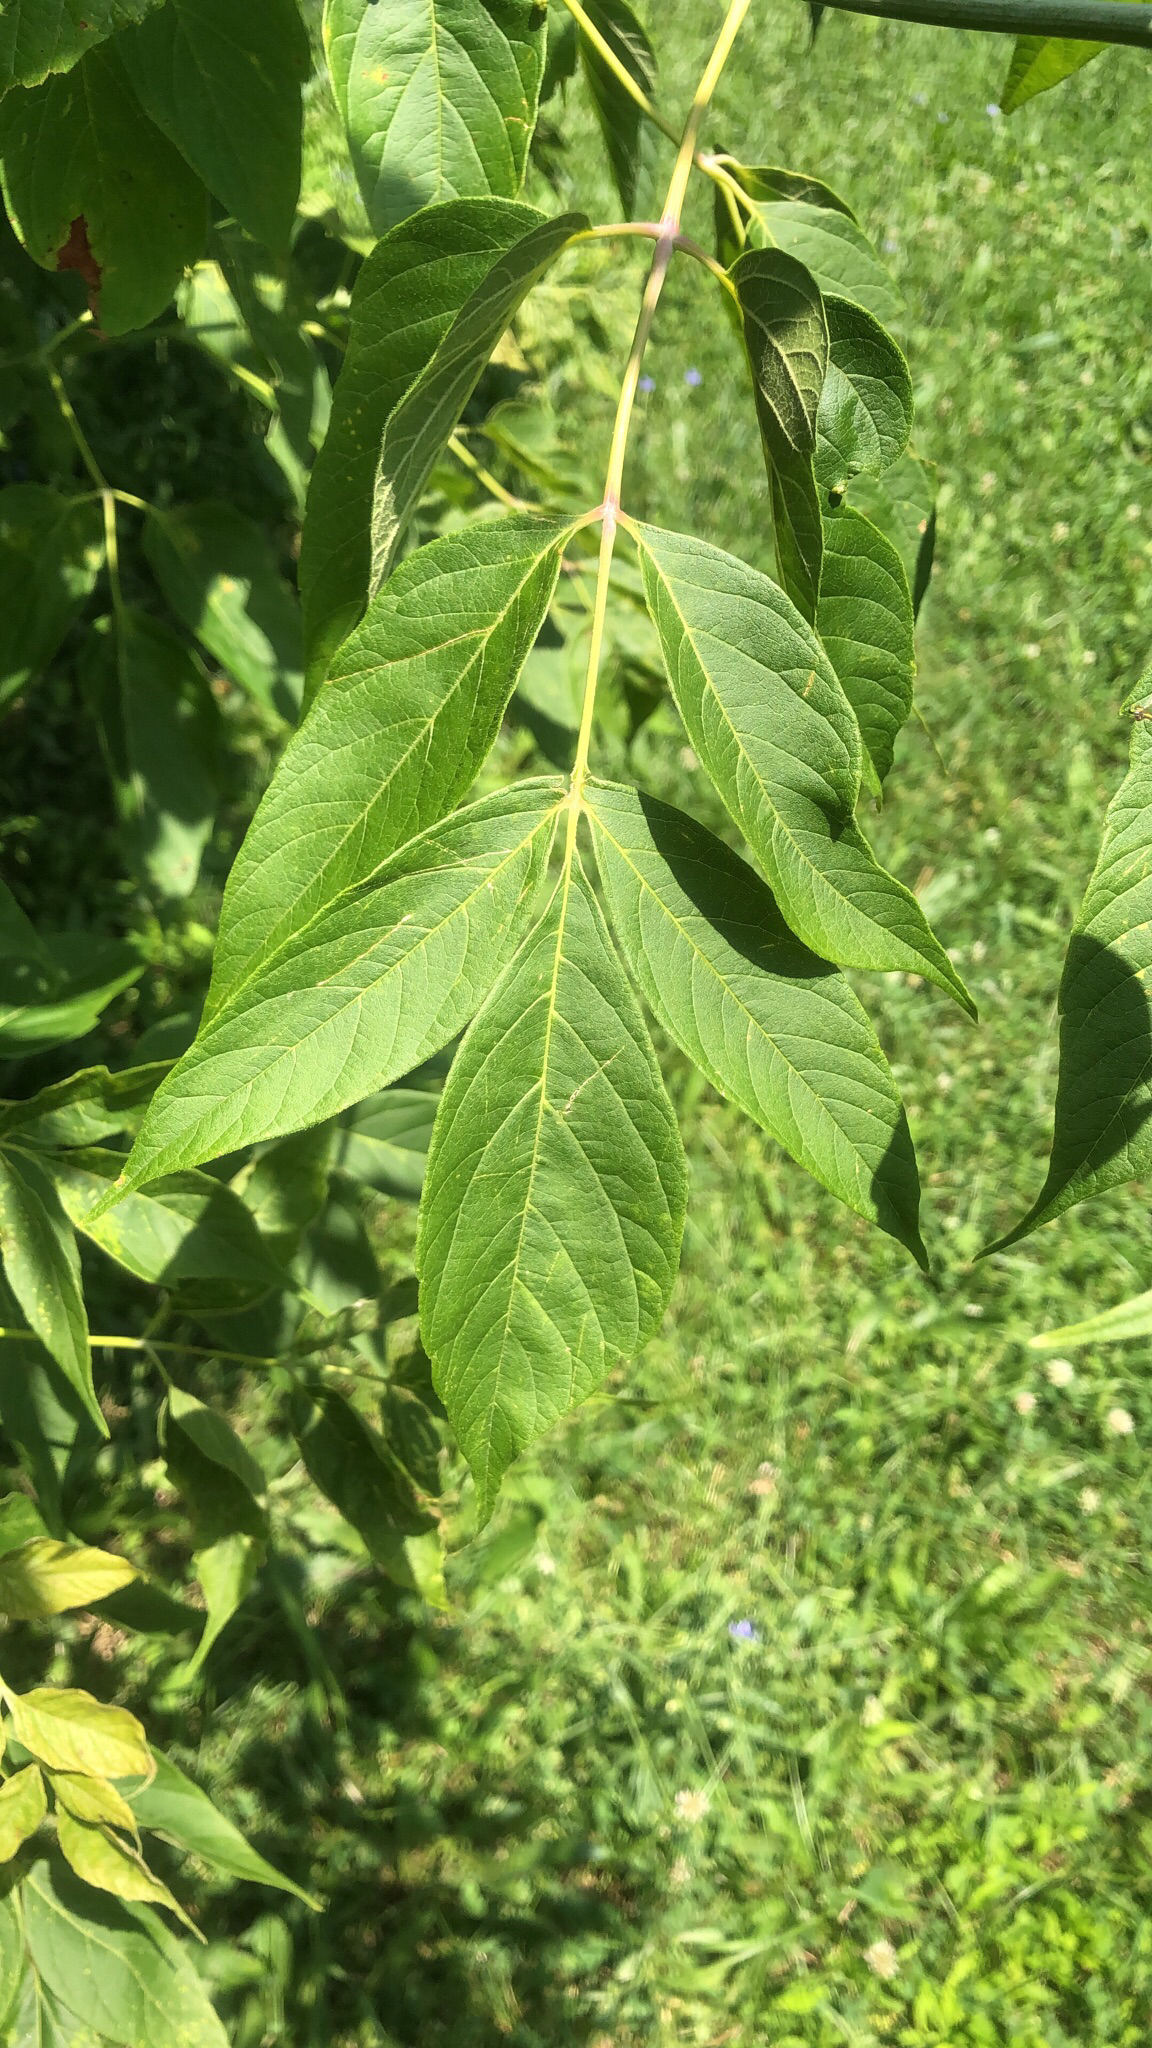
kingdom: Plantae
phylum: Tracheophyta
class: Magnoliopsida
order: Sapindales
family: Sapindaceae
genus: Acer
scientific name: Acer negundo
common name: Ashleaf maple
